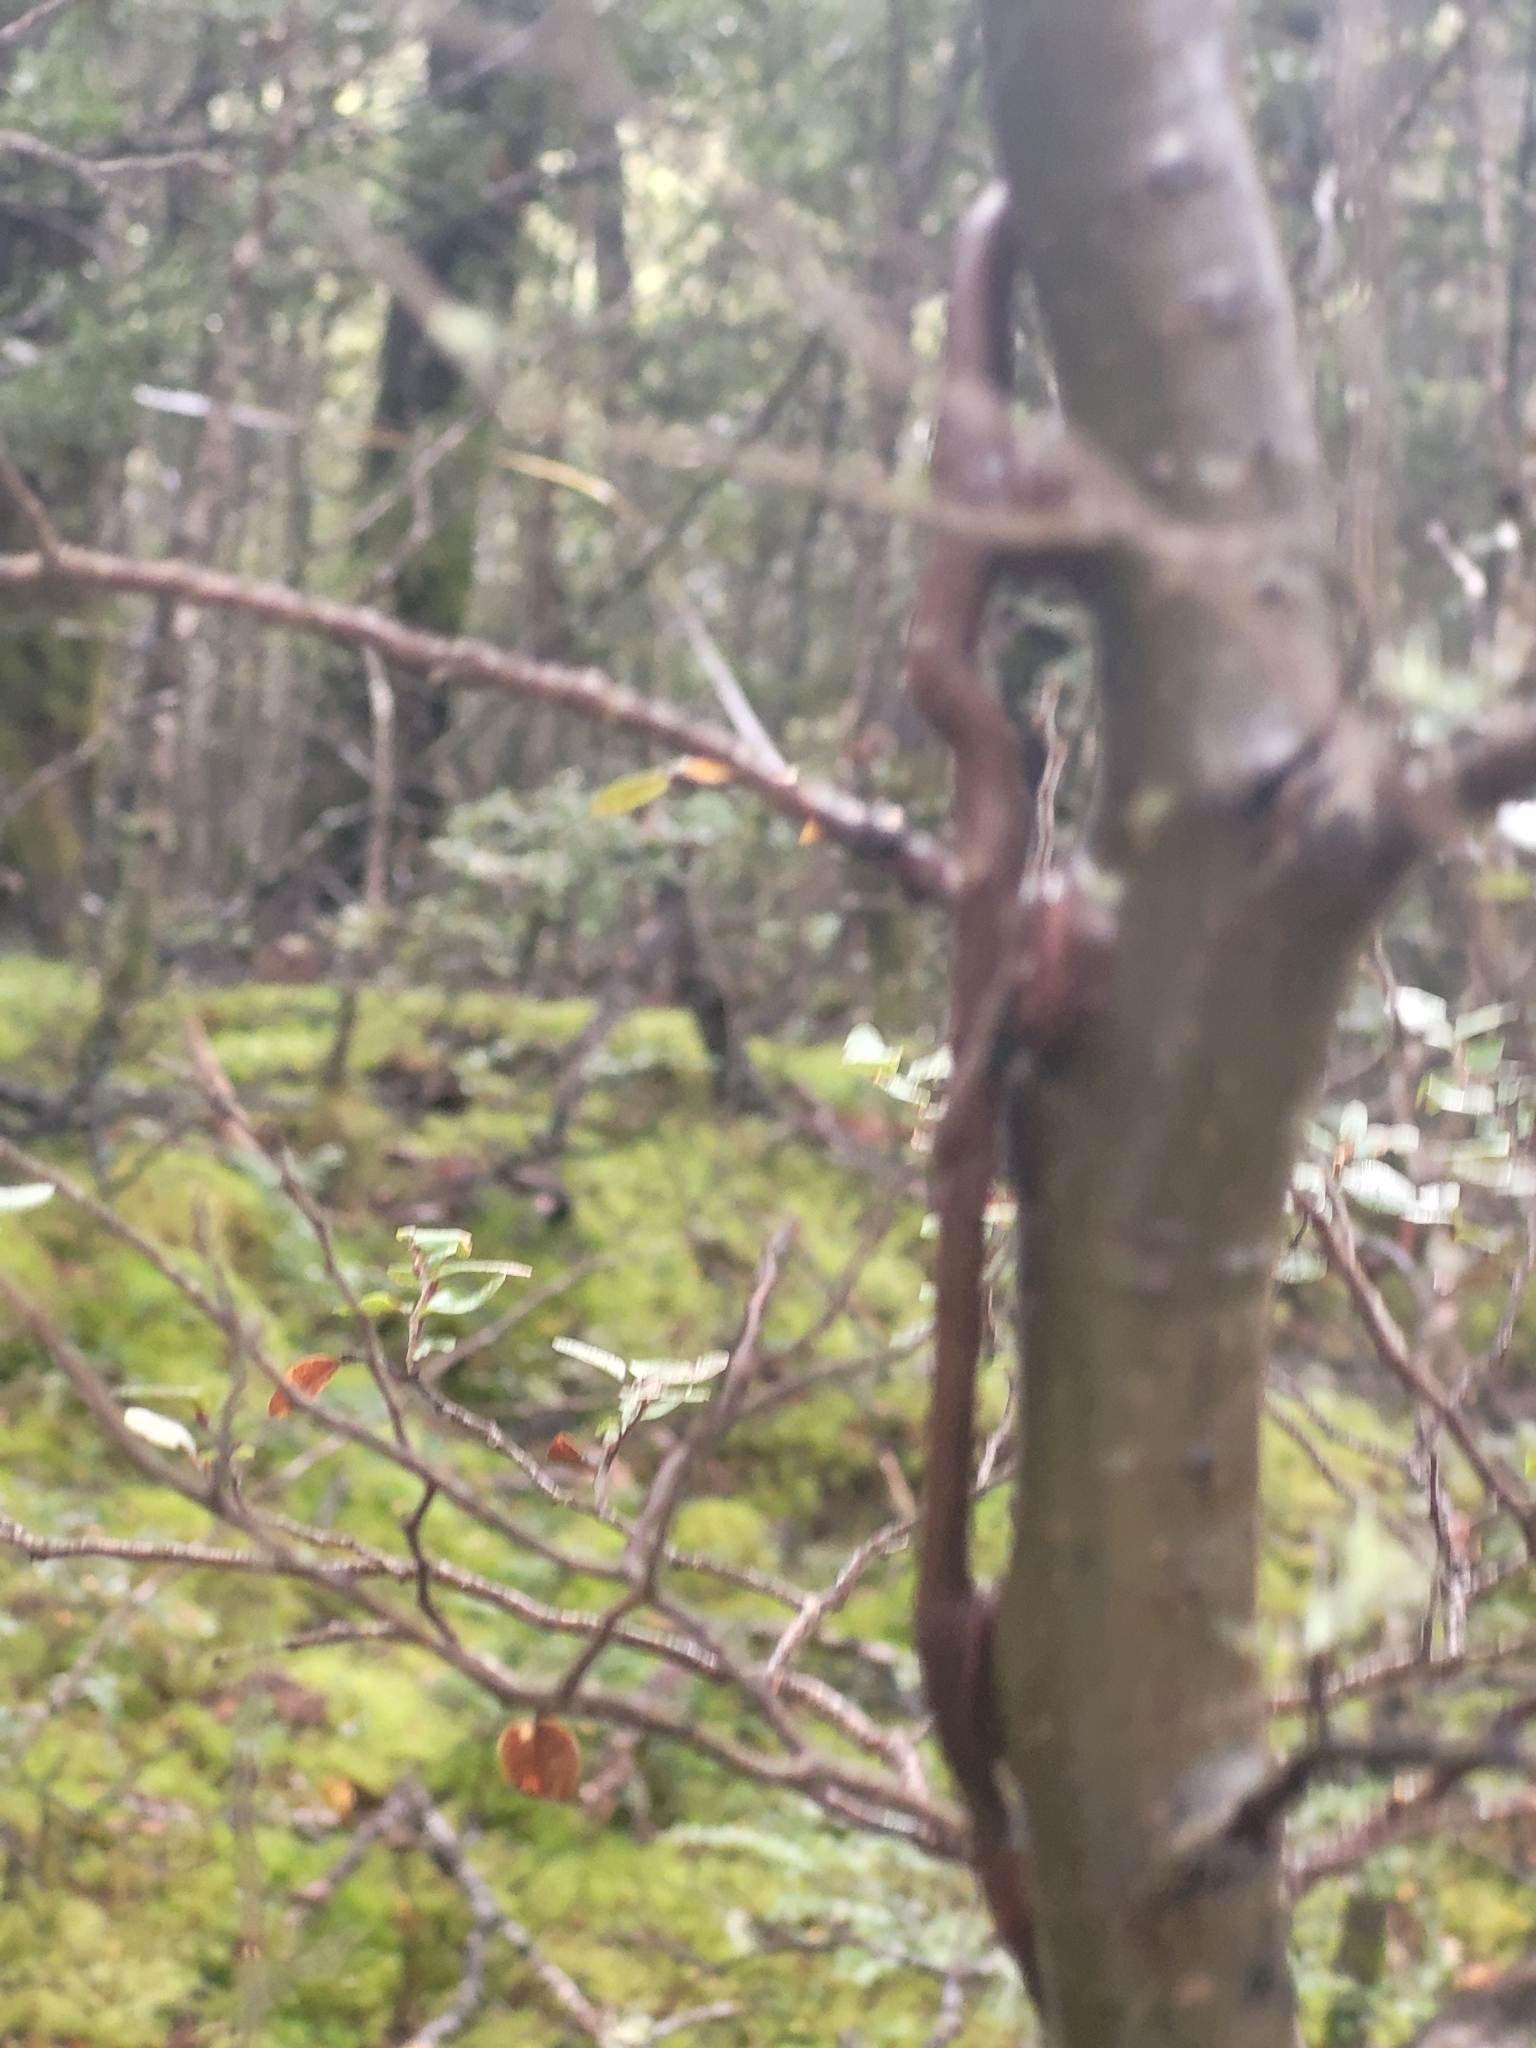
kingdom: Plantae
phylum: Tracheophyta
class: Magnoliopsida
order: Santalales
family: Loranthaceae
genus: Alepis
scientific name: Alepis flavida
